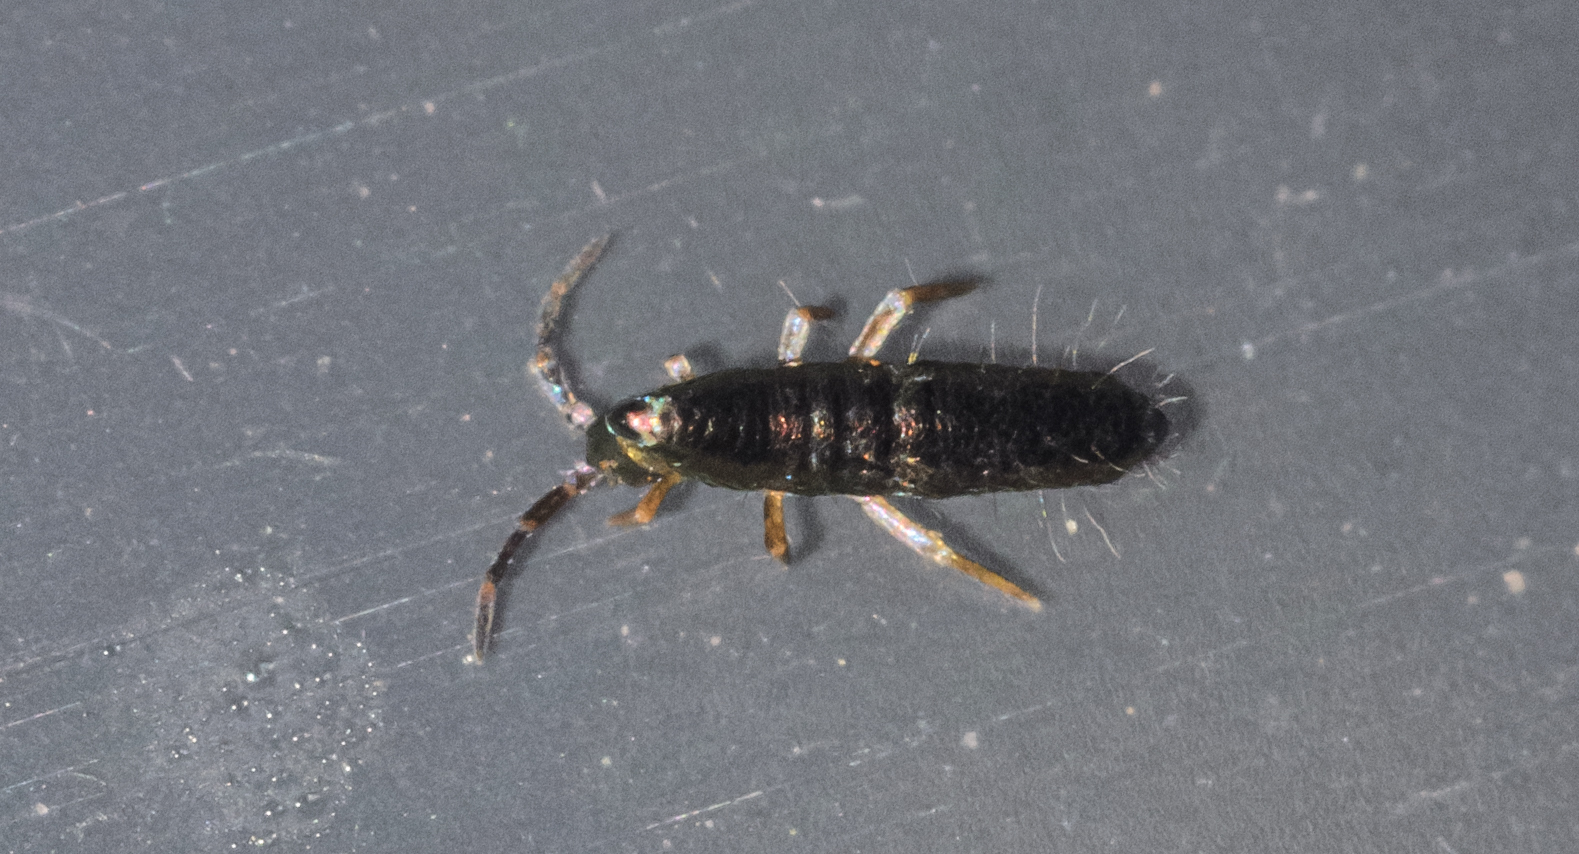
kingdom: Animalia
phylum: Arthropoda
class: Collembola
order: Entomobryomorpha
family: Entomobryidae
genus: Lepidocyrtus
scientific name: Lepidocyrtus
